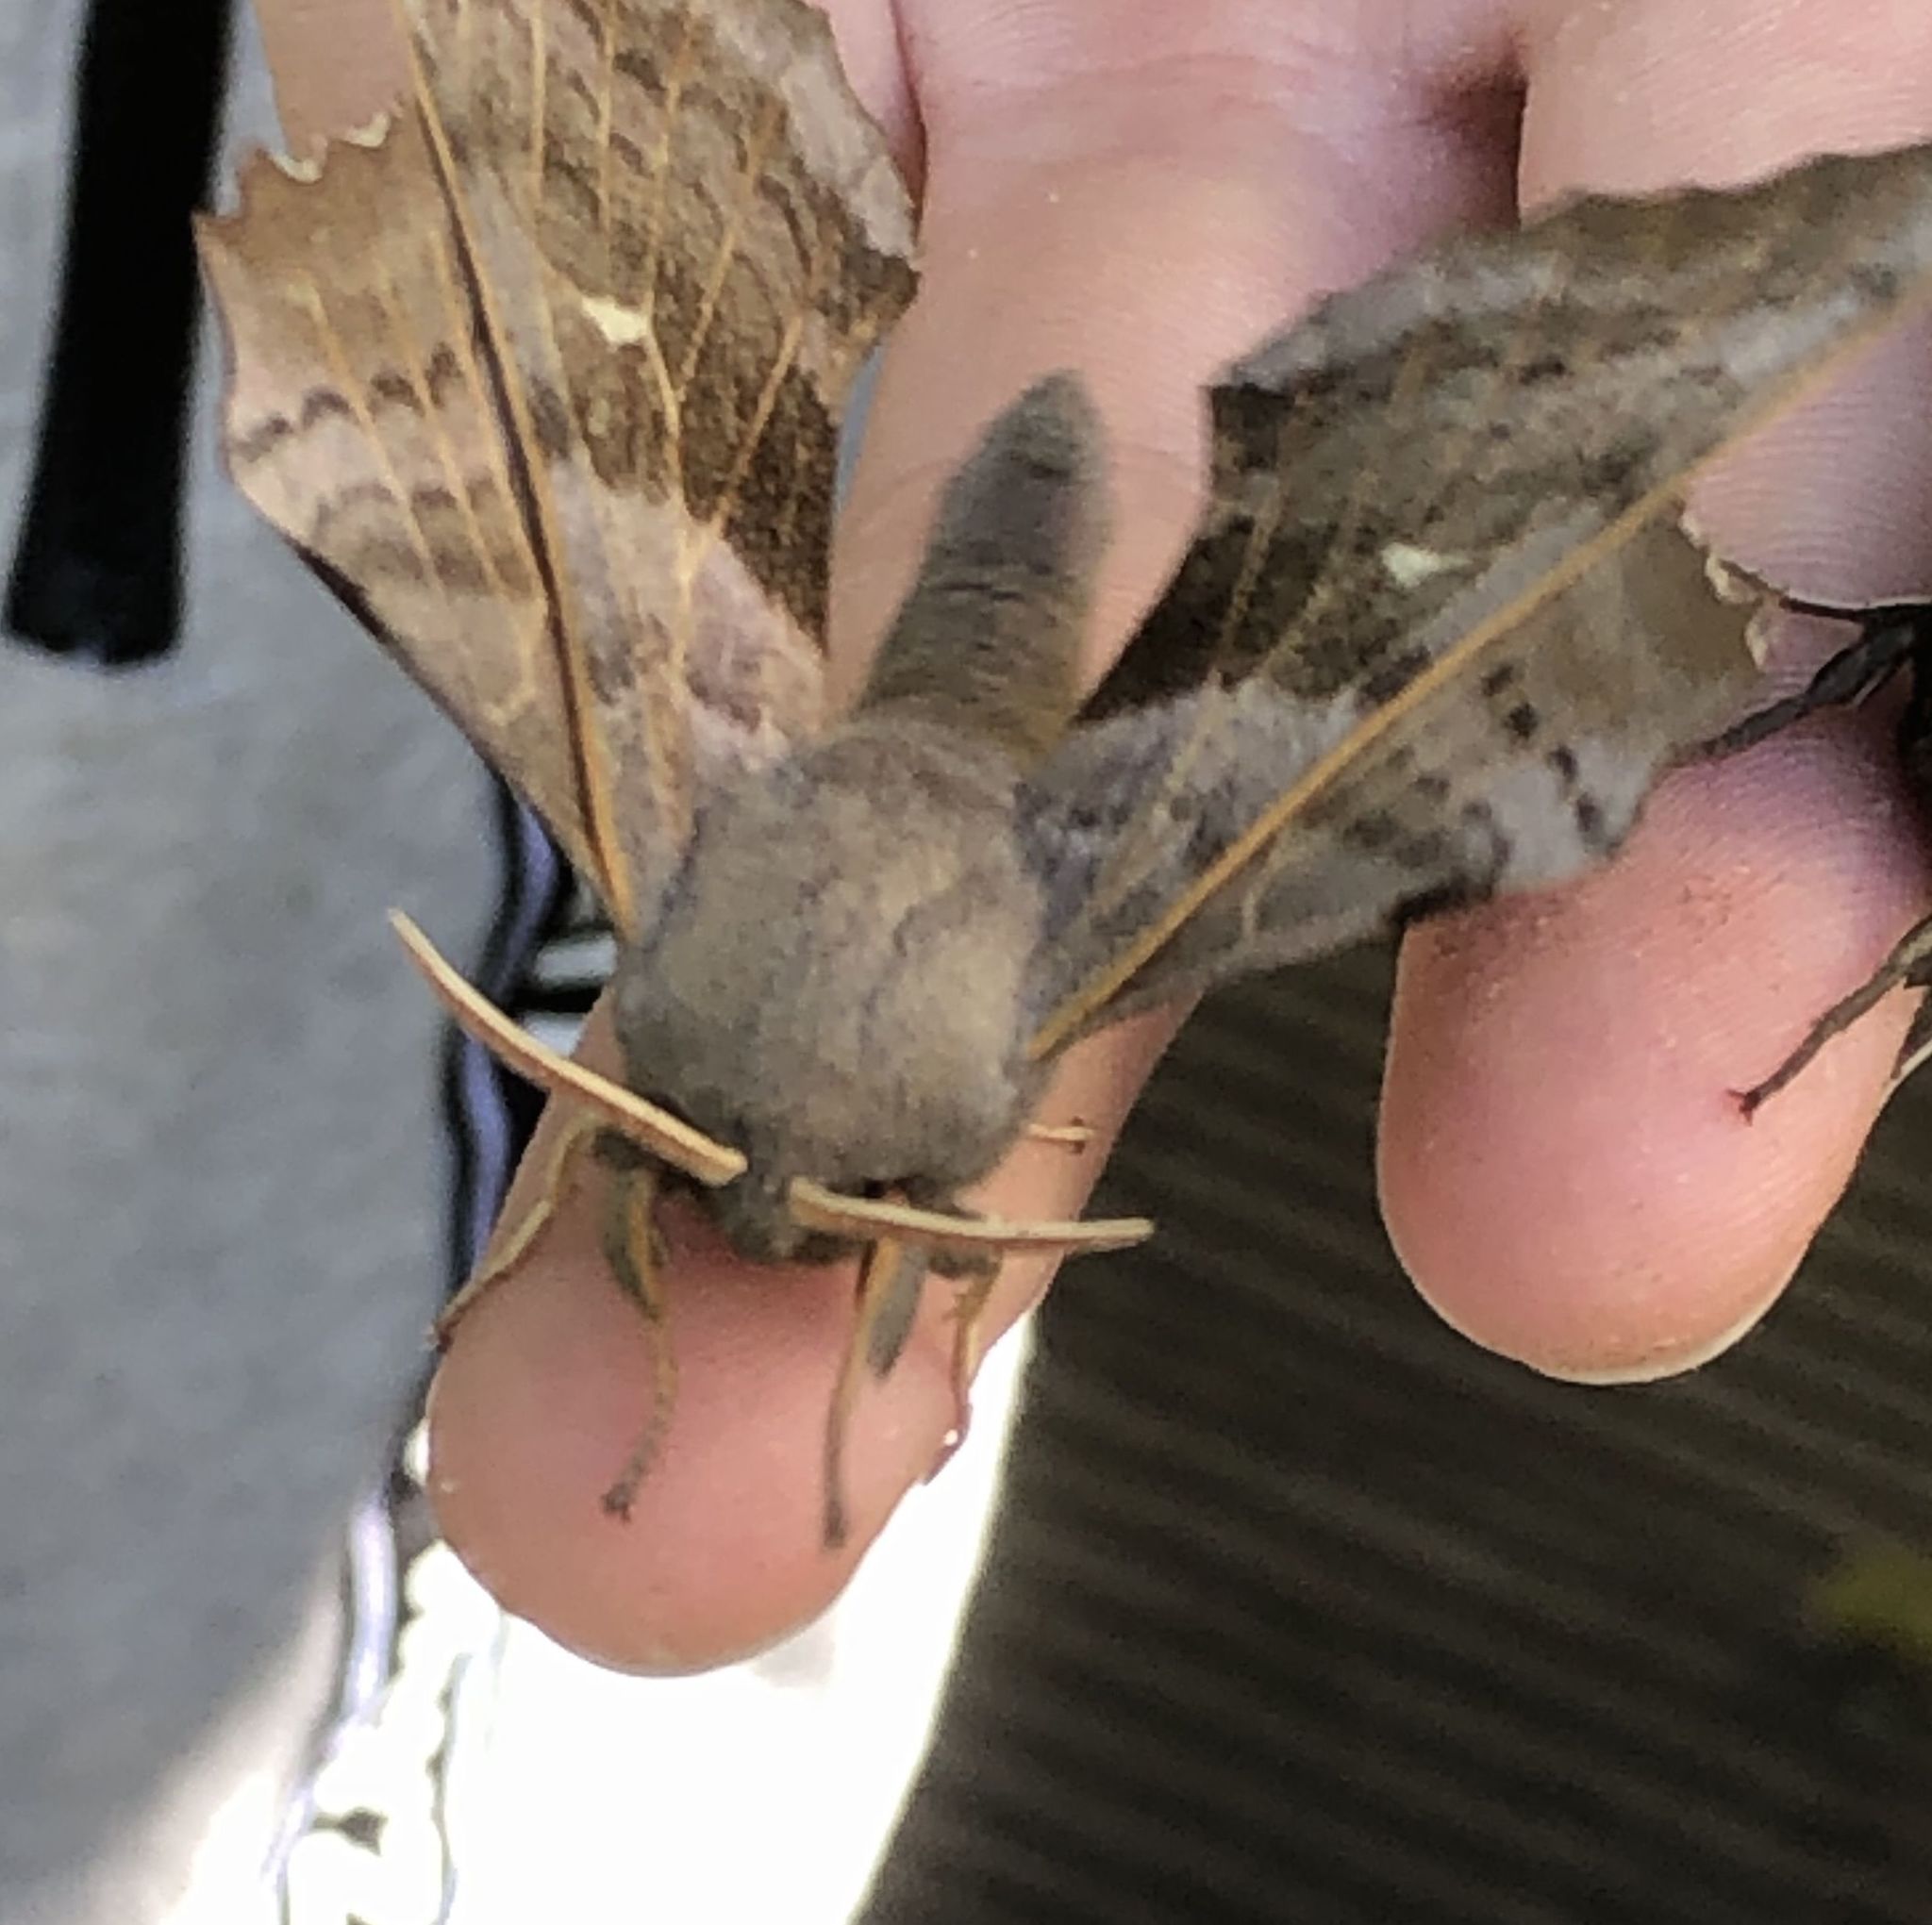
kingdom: Animalia
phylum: Arthropoda
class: Insecta
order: Lepidoptera
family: Sphingidae
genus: Laothoe
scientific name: Laothoe populi
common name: Poplar hawk-moth
